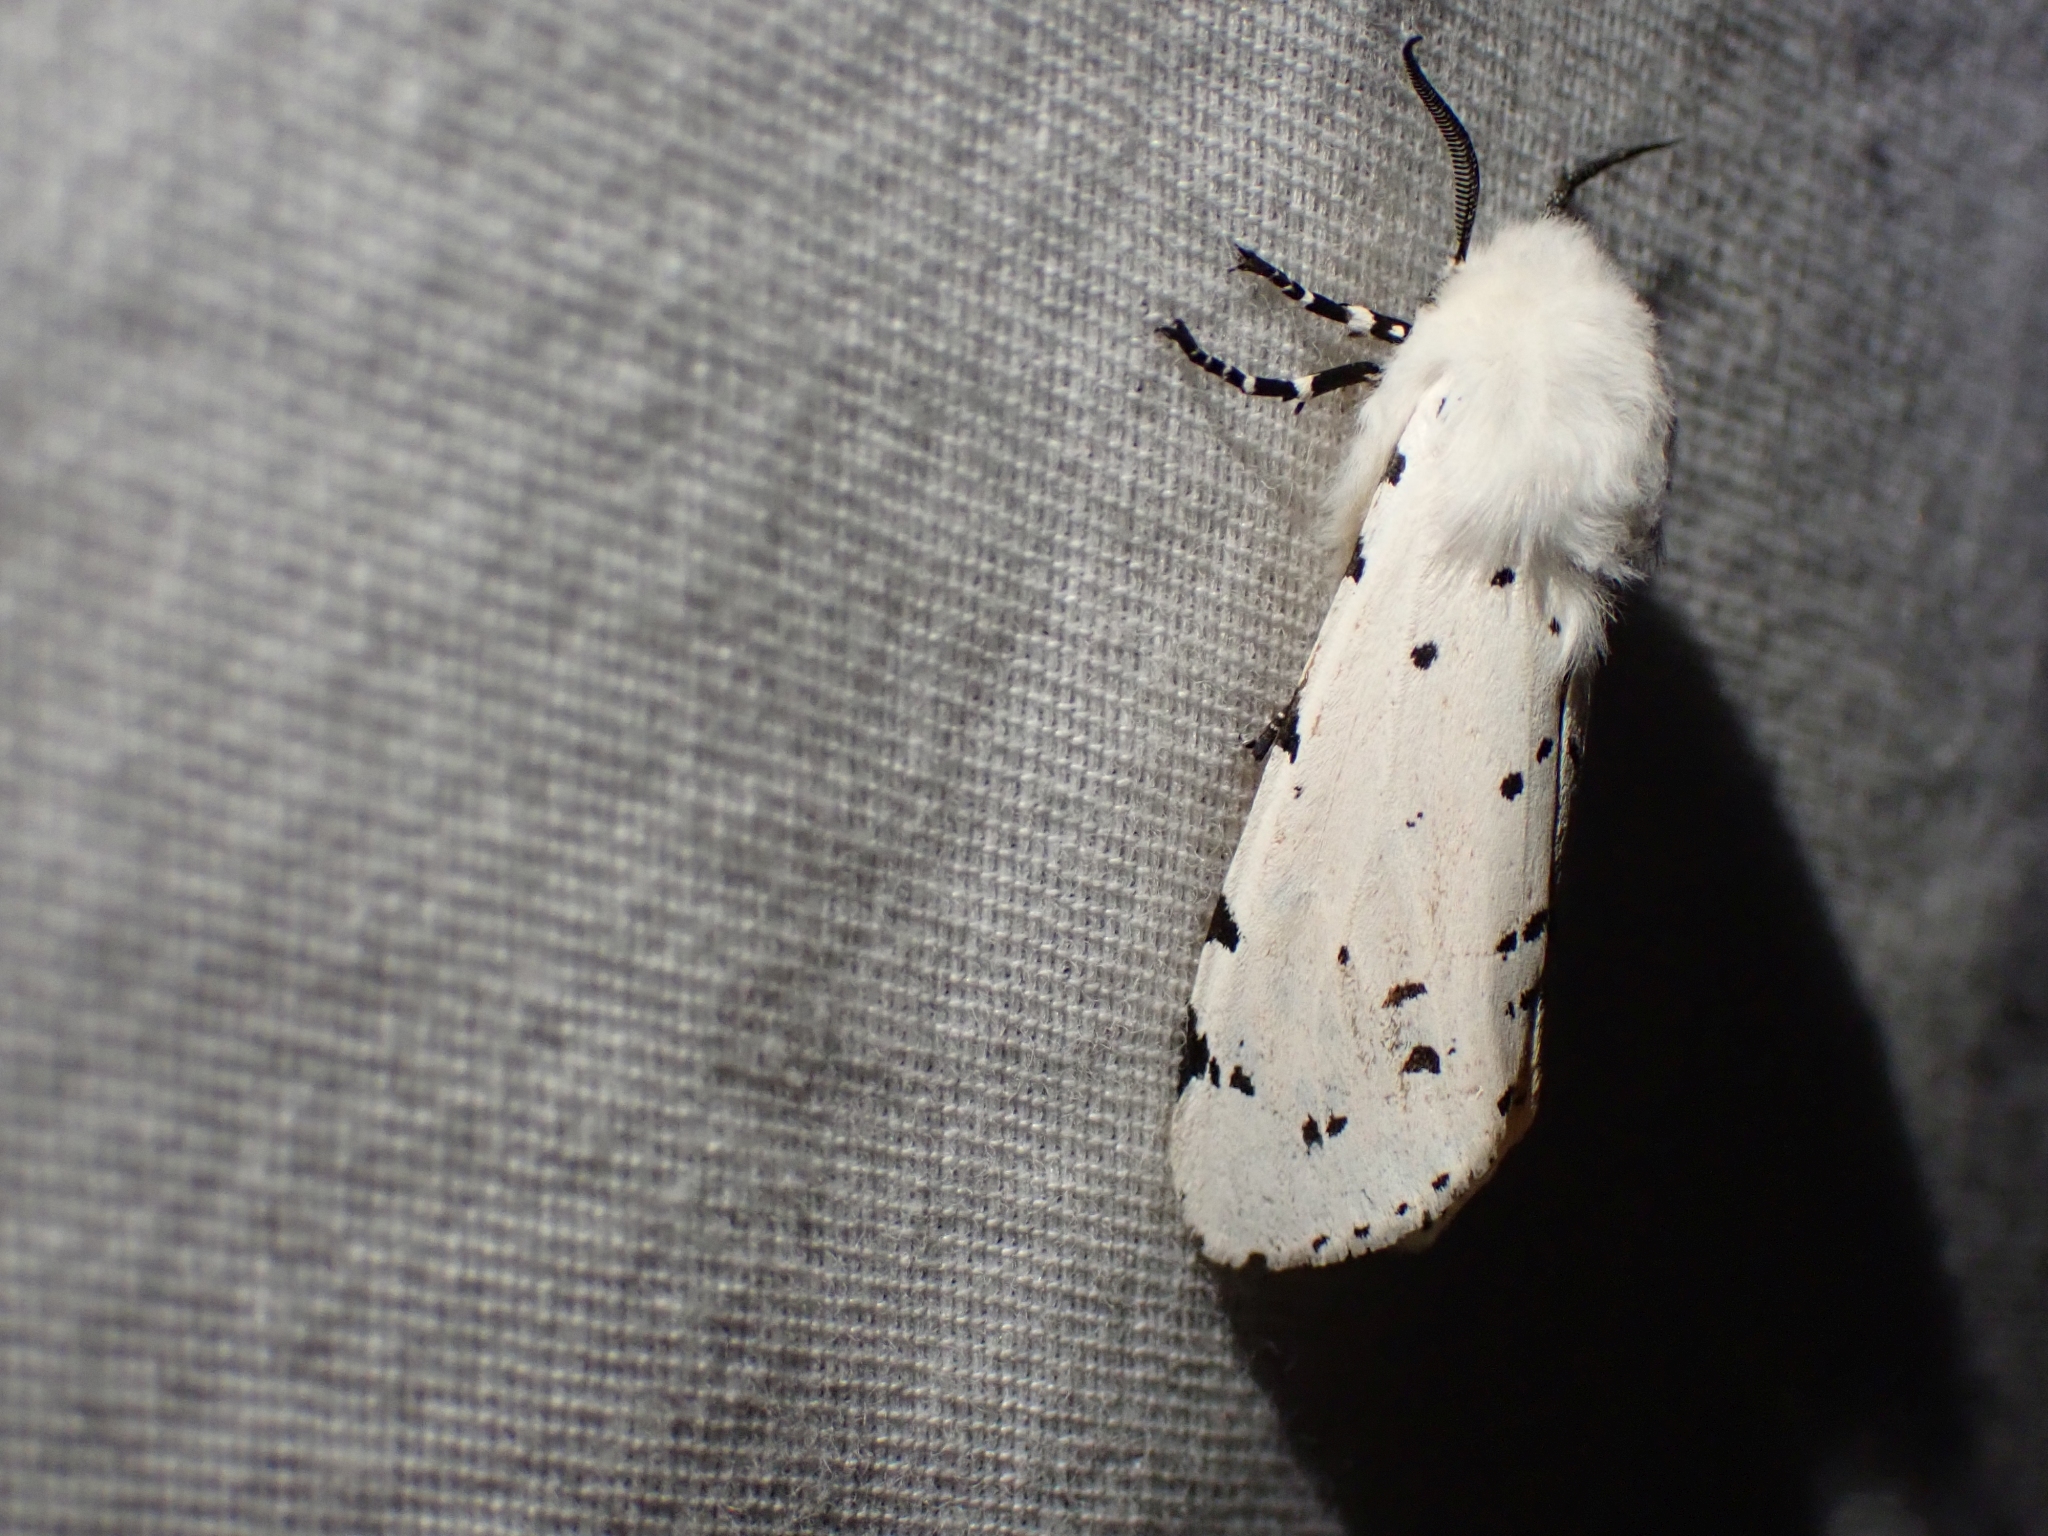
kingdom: Animalia
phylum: Arthropoda
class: Insecta
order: Lepidoptera
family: Erebidae
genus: Estigmene
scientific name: Estigmene acrea
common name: Salt marsh moth
